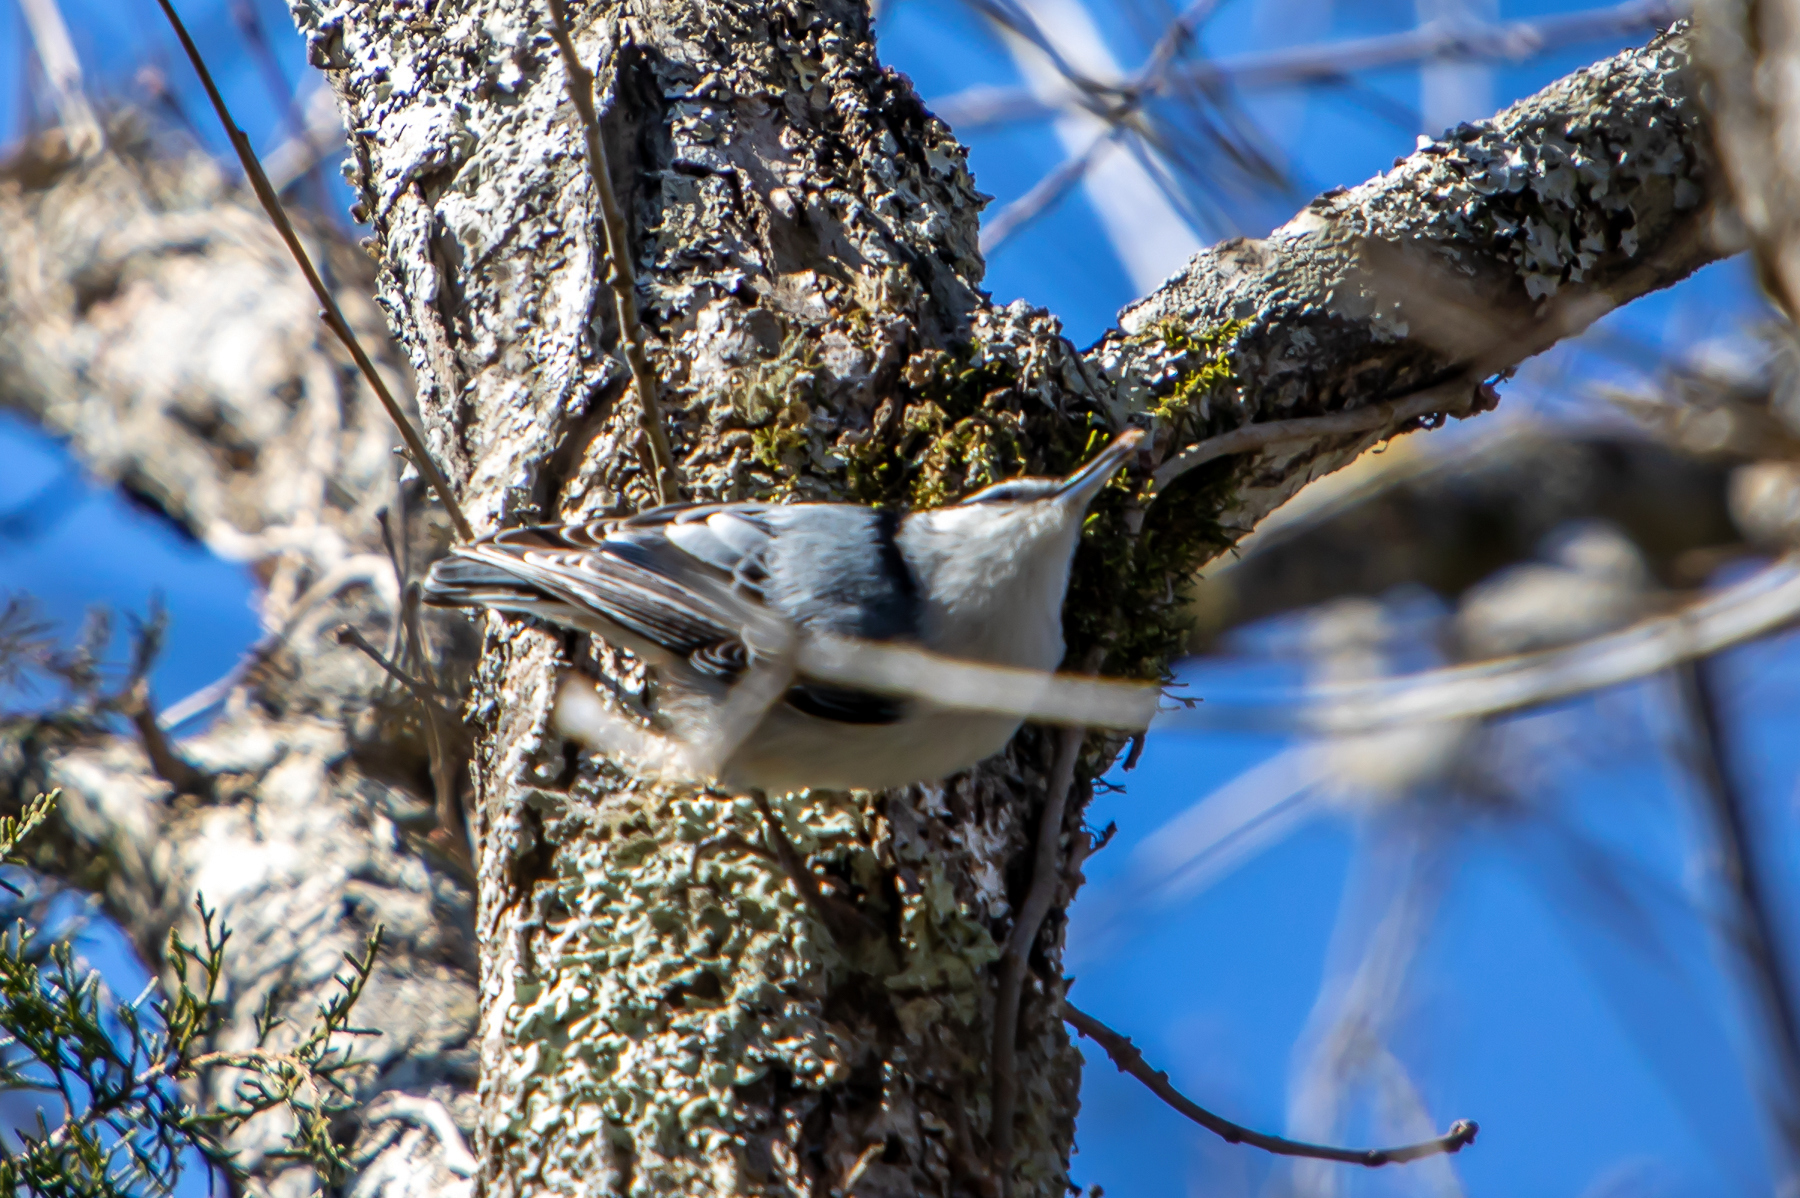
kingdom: Animalia
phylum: Chordata
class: Aves
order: Passeriformes
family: Sittidae
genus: Sitta
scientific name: Sitta carolinensis
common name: White-breasted nuthatch
